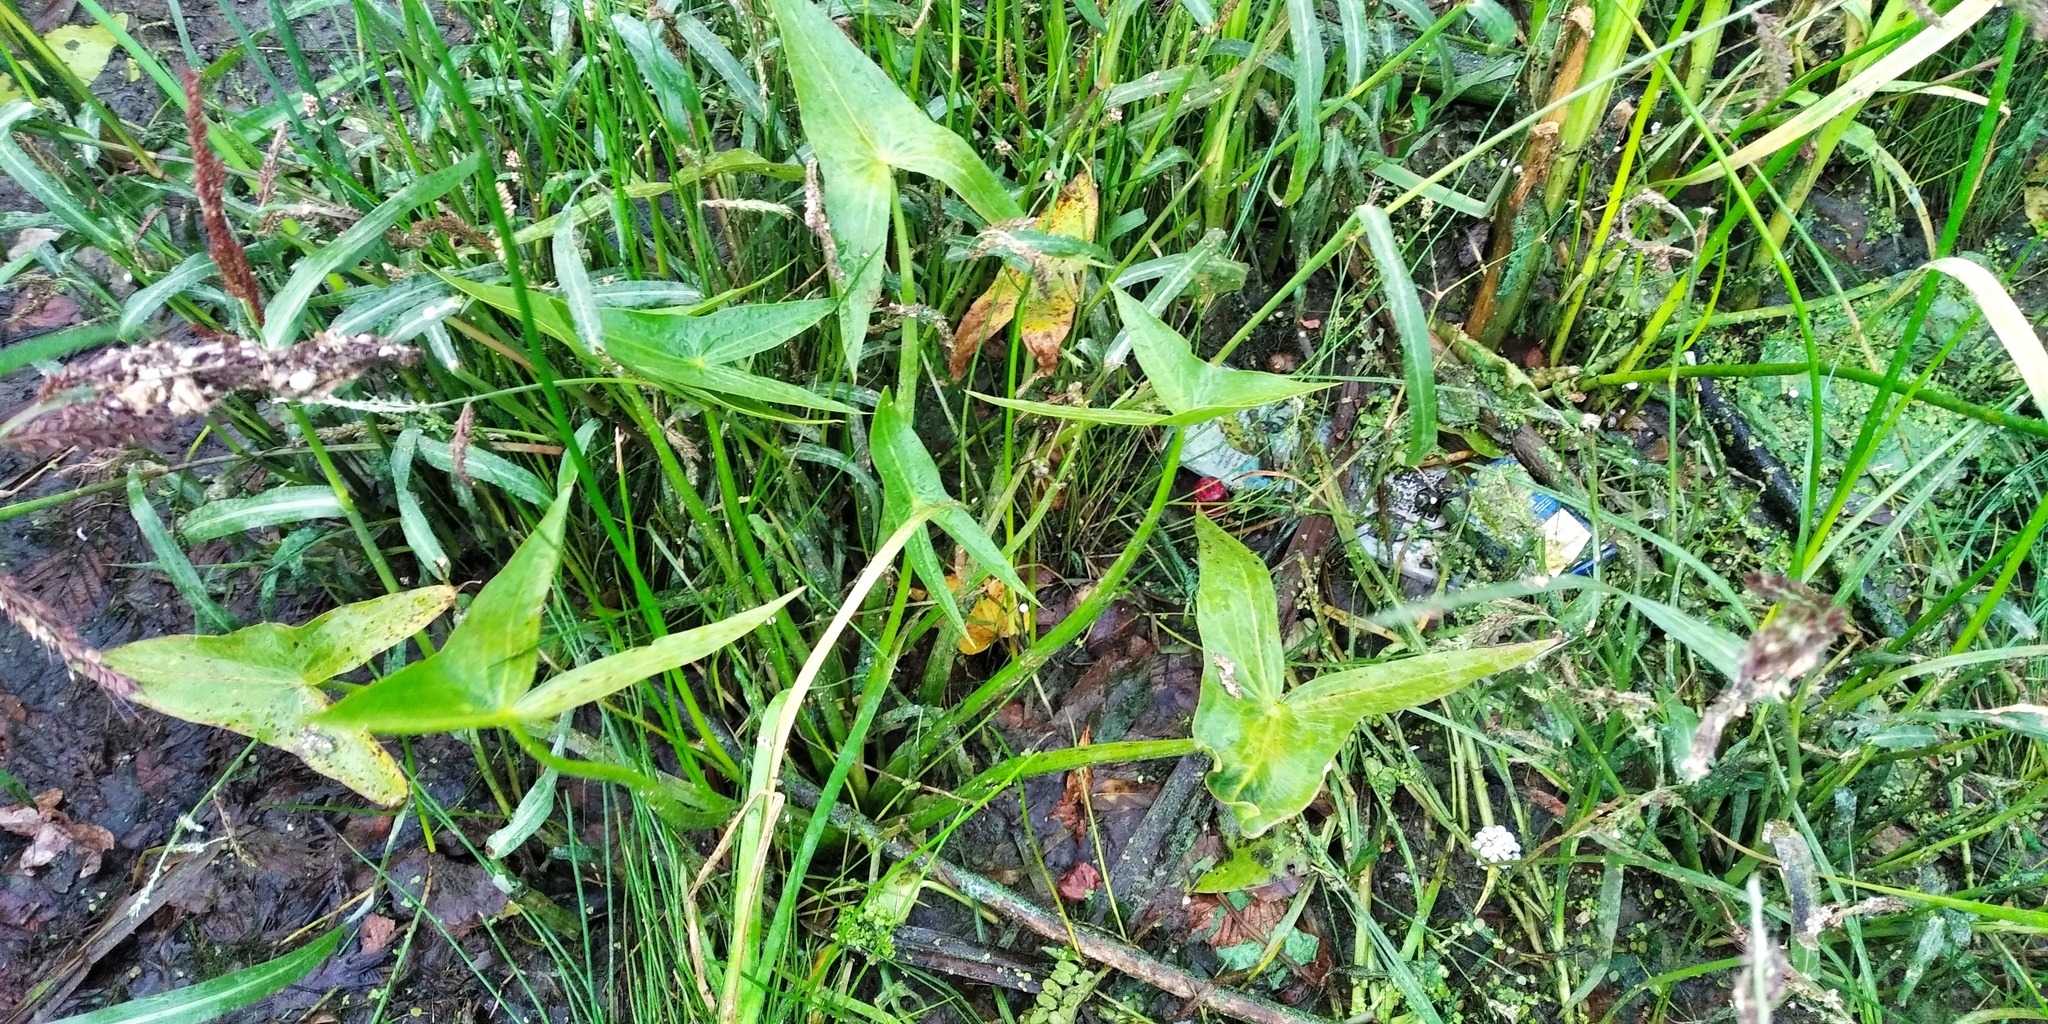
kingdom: Plantae
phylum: Tracheophyta
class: Liliopsida
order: Alismatales
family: Alismataceae
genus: Sagittaria
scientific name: Sagittaria sagittifolia
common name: Arrowhead
